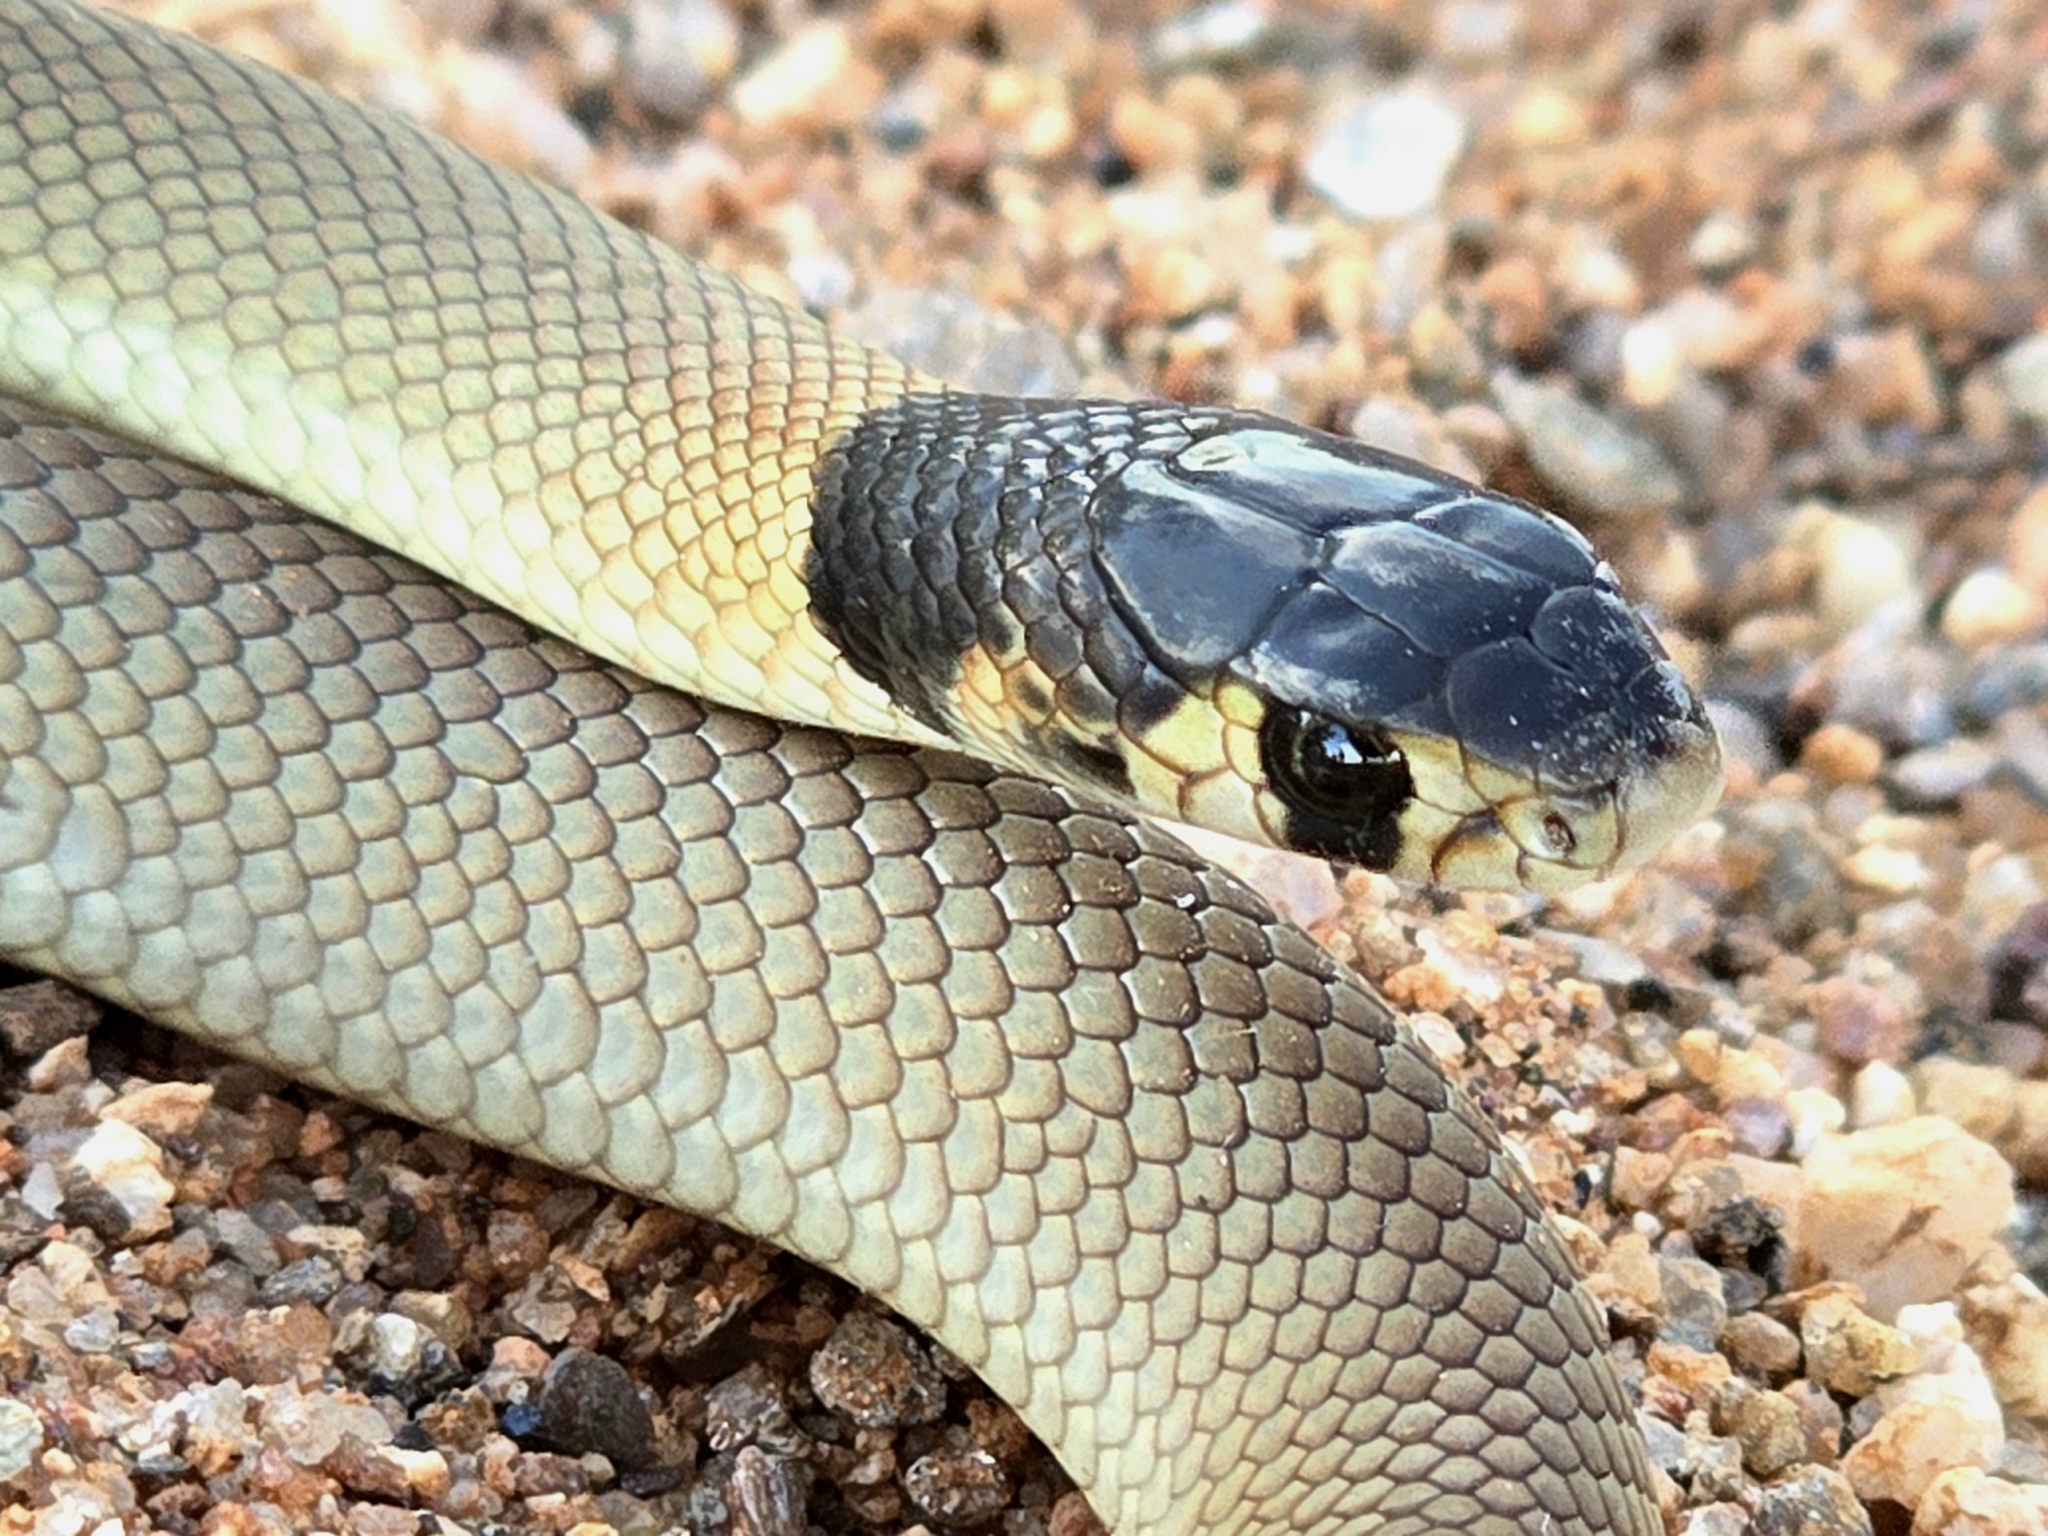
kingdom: Animalia
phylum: Chordata
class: Squamata
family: Elapidae
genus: Pseudonaja
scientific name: Pseudonaja aspidorhyncha
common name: Strap-snouted brown snake
